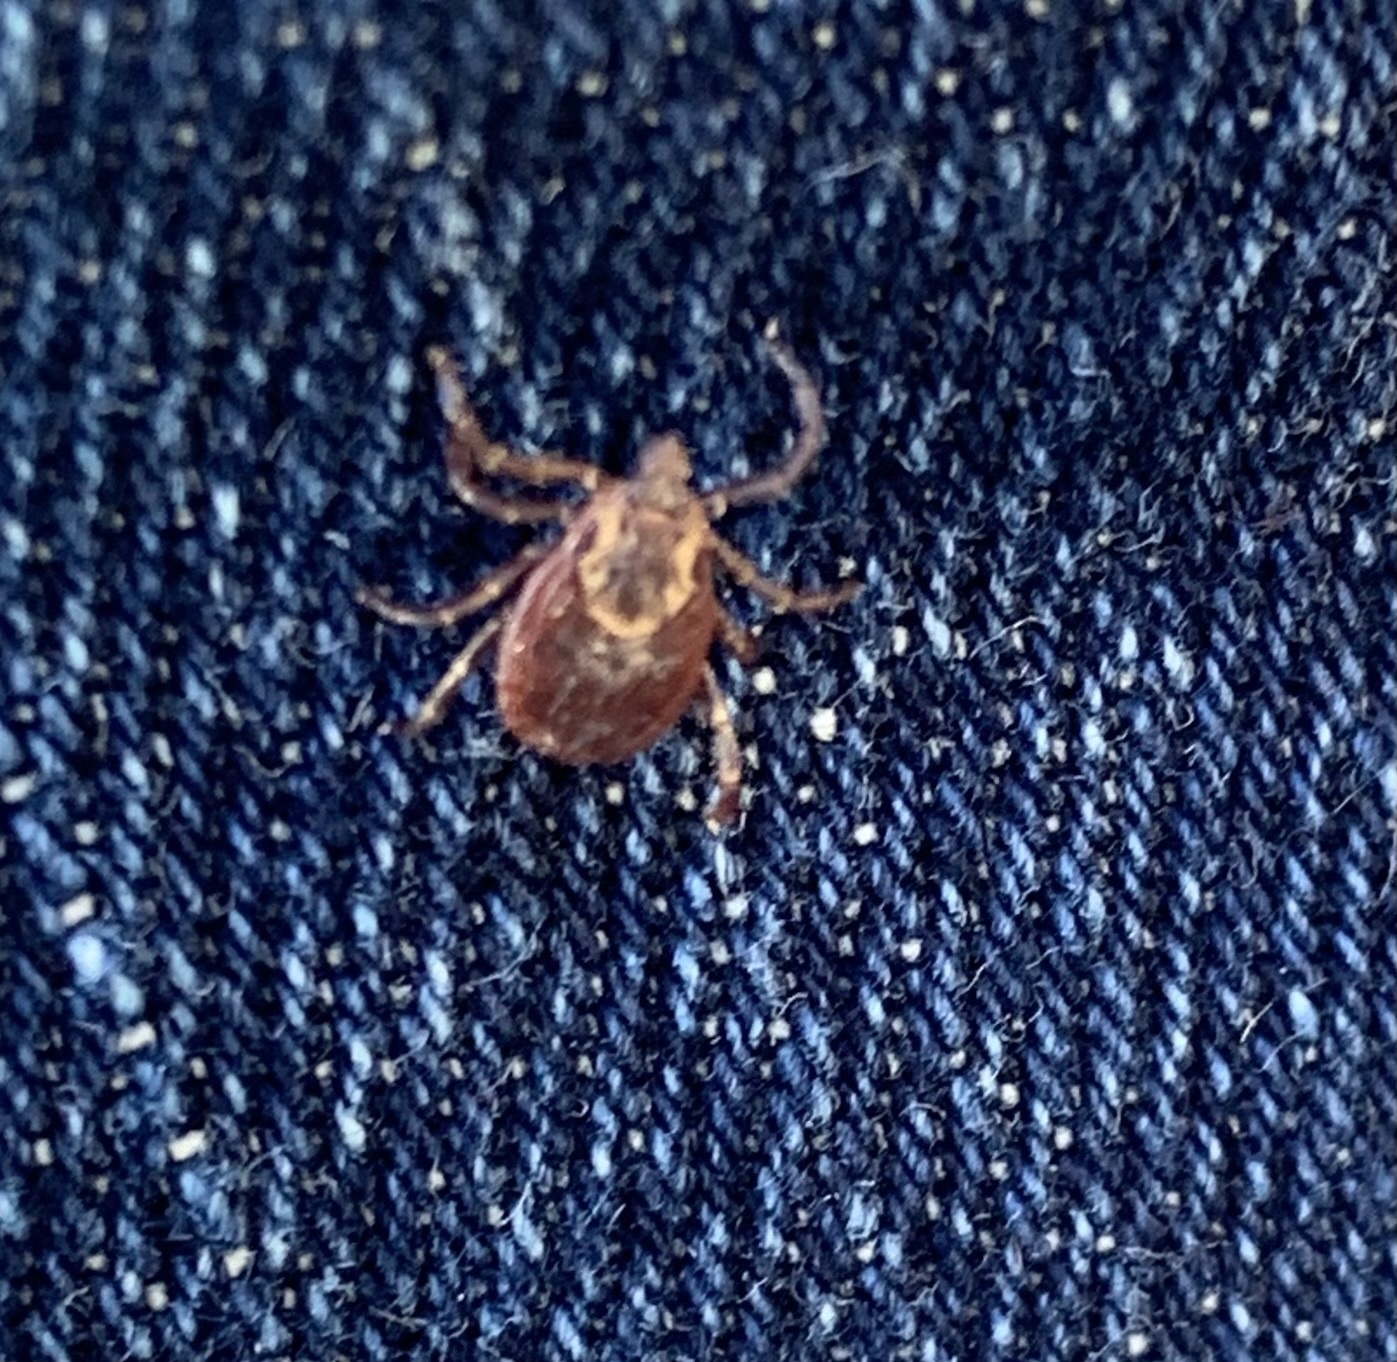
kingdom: Animalia
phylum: Arthropoda
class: Arachnida
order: Ixodida
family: Ixodidae
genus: Dermacentor
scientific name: Dermacentor variabilis
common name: American dog tick
